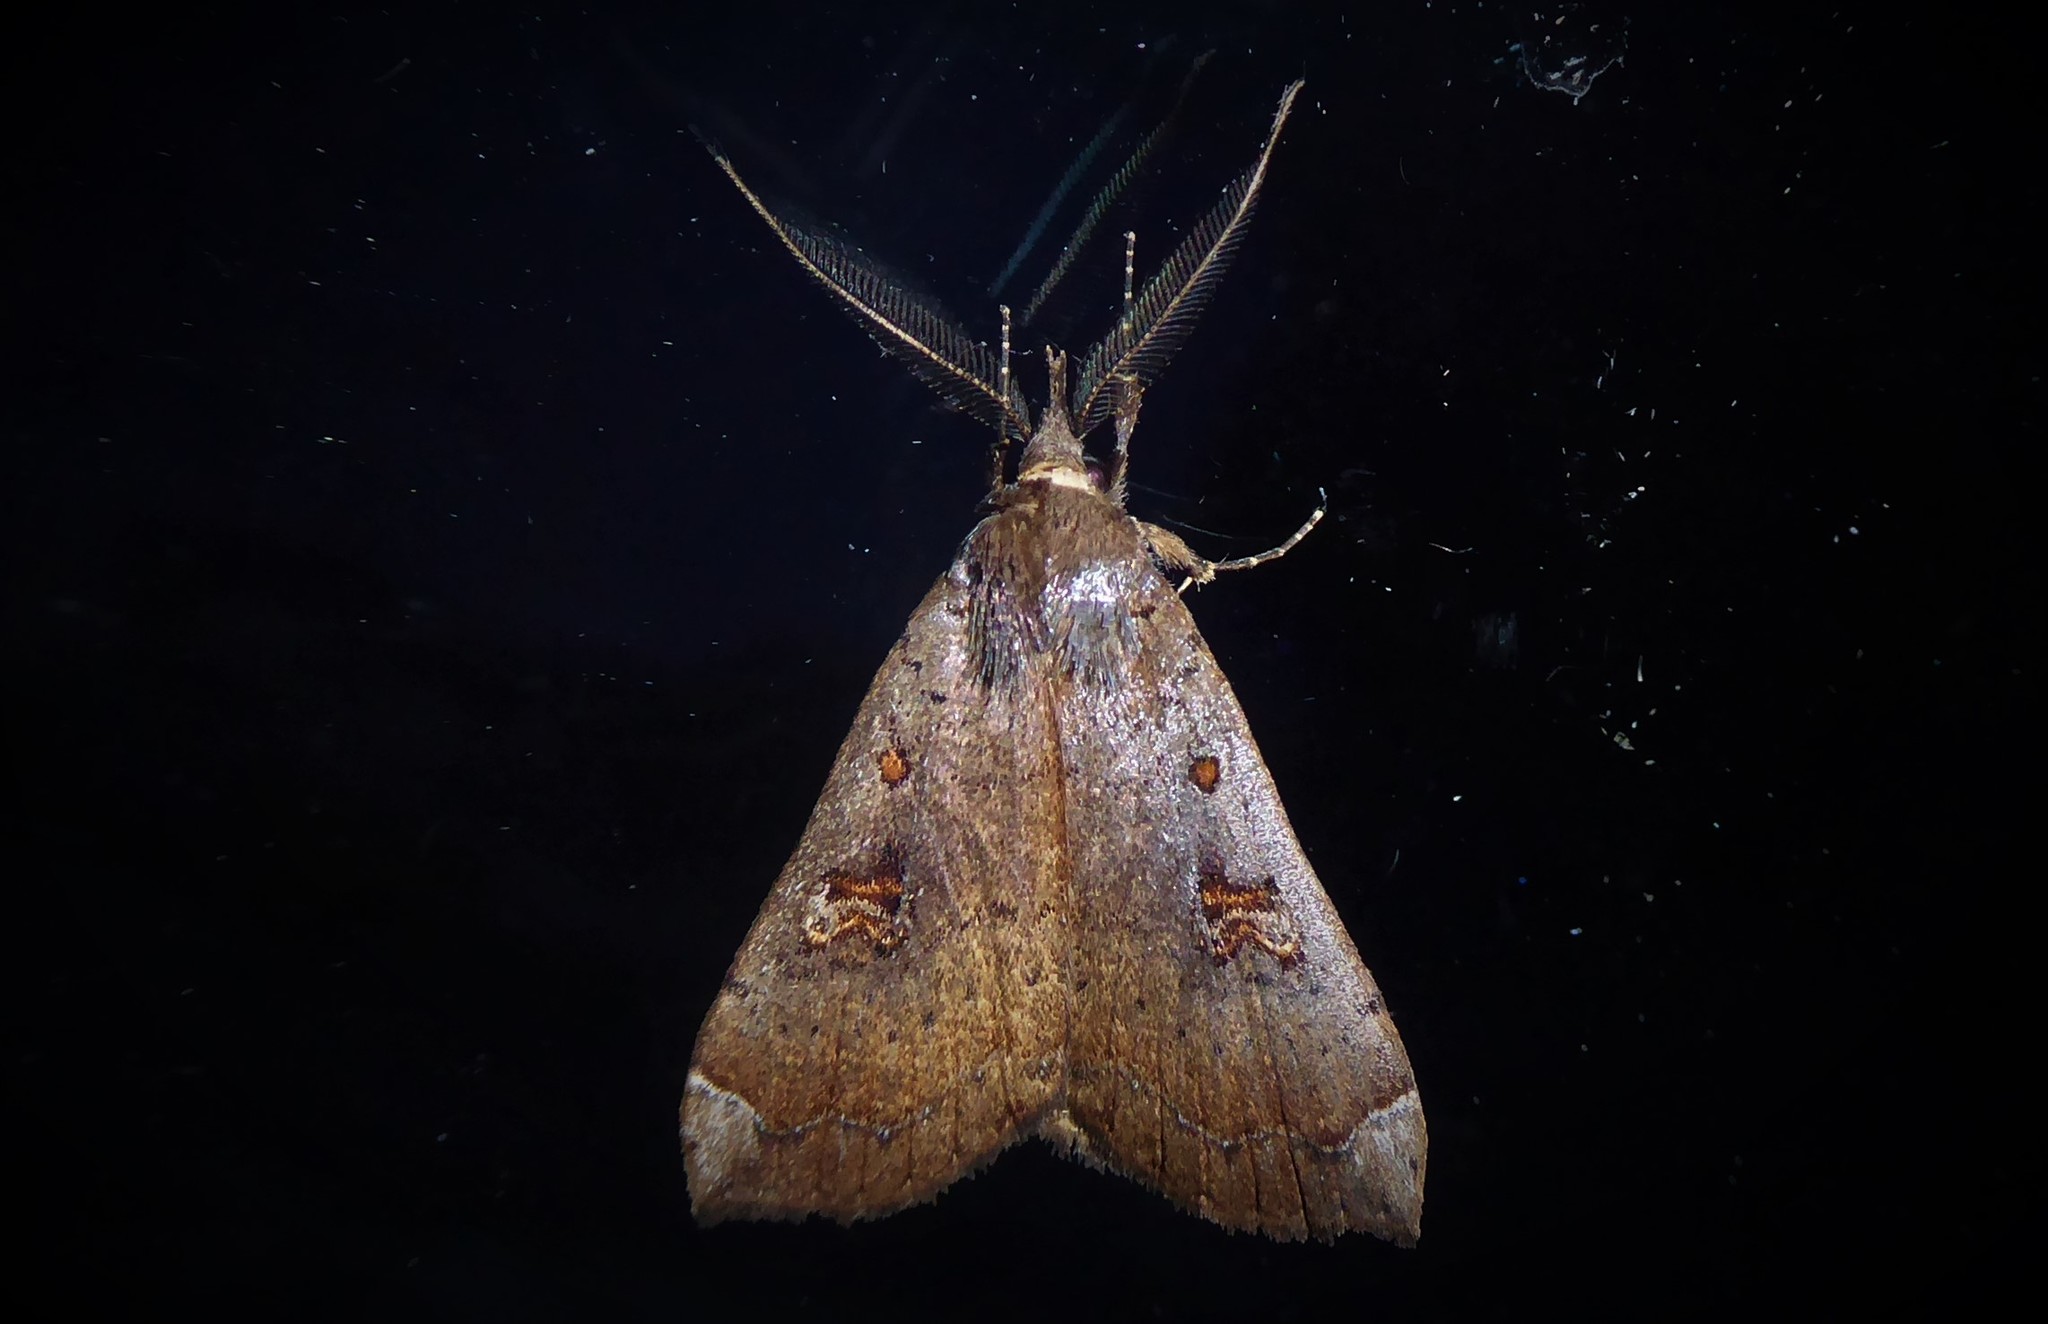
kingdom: Animalia
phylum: Arthropoda
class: Insecta
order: Lepidoptera
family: Erebidae
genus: Rhapsa
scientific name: Rhapsa scotosialis
